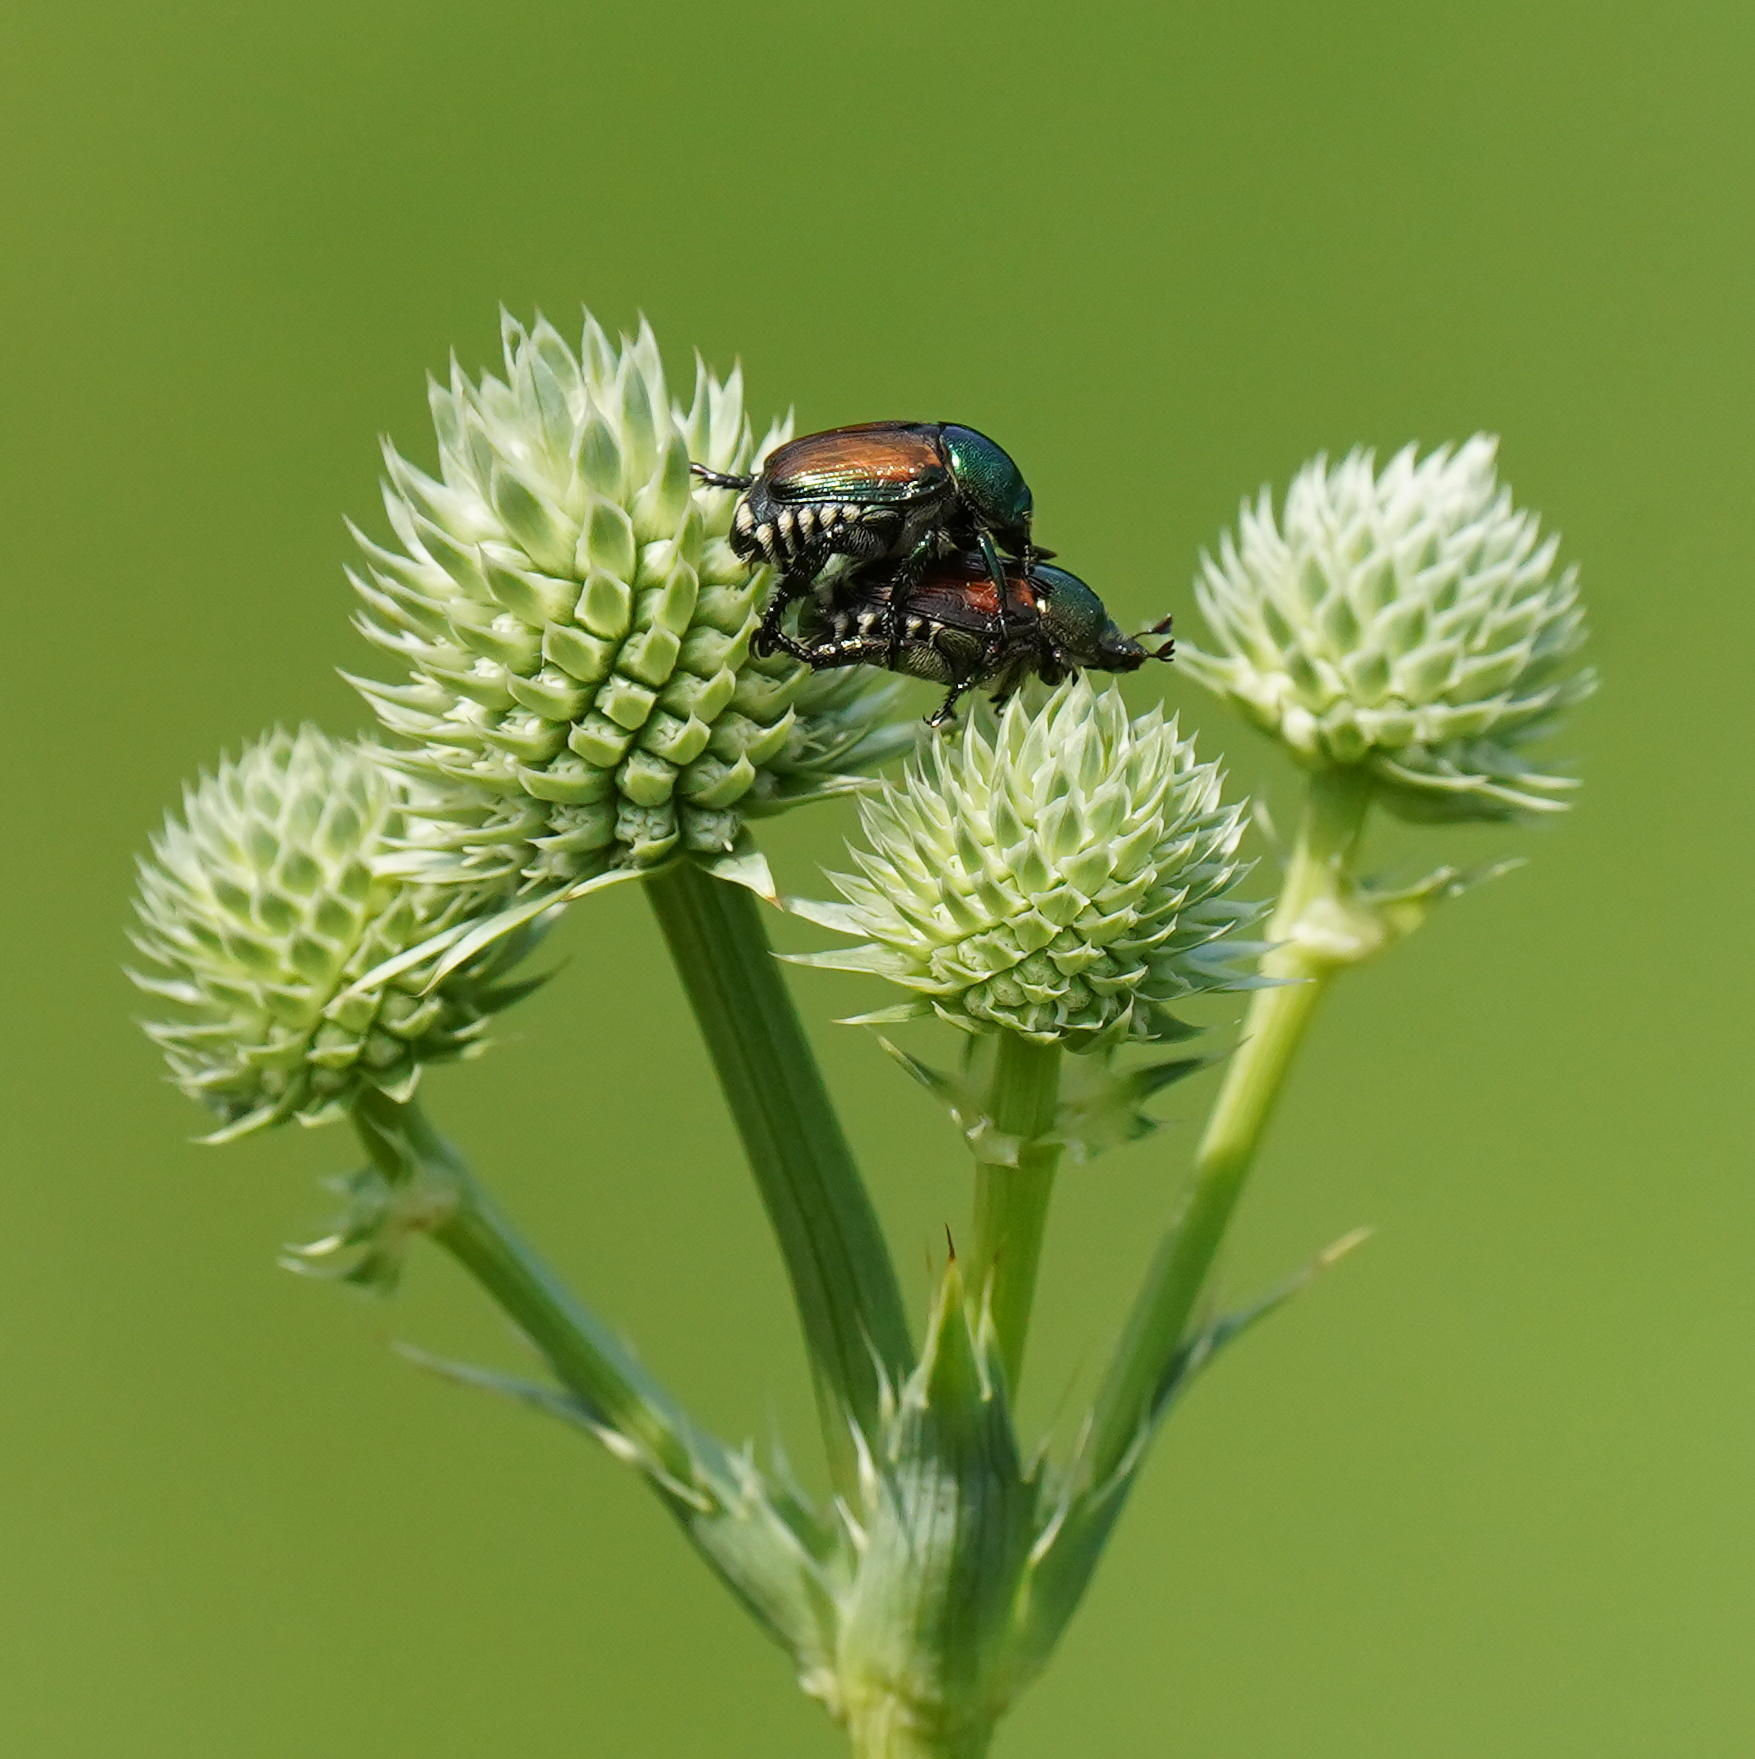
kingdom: Animalia
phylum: Arthropoda
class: Insecta
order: Coleoptera
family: Scarabaeidae
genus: Popillia
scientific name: Popillia japonica
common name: Japanese beetle
